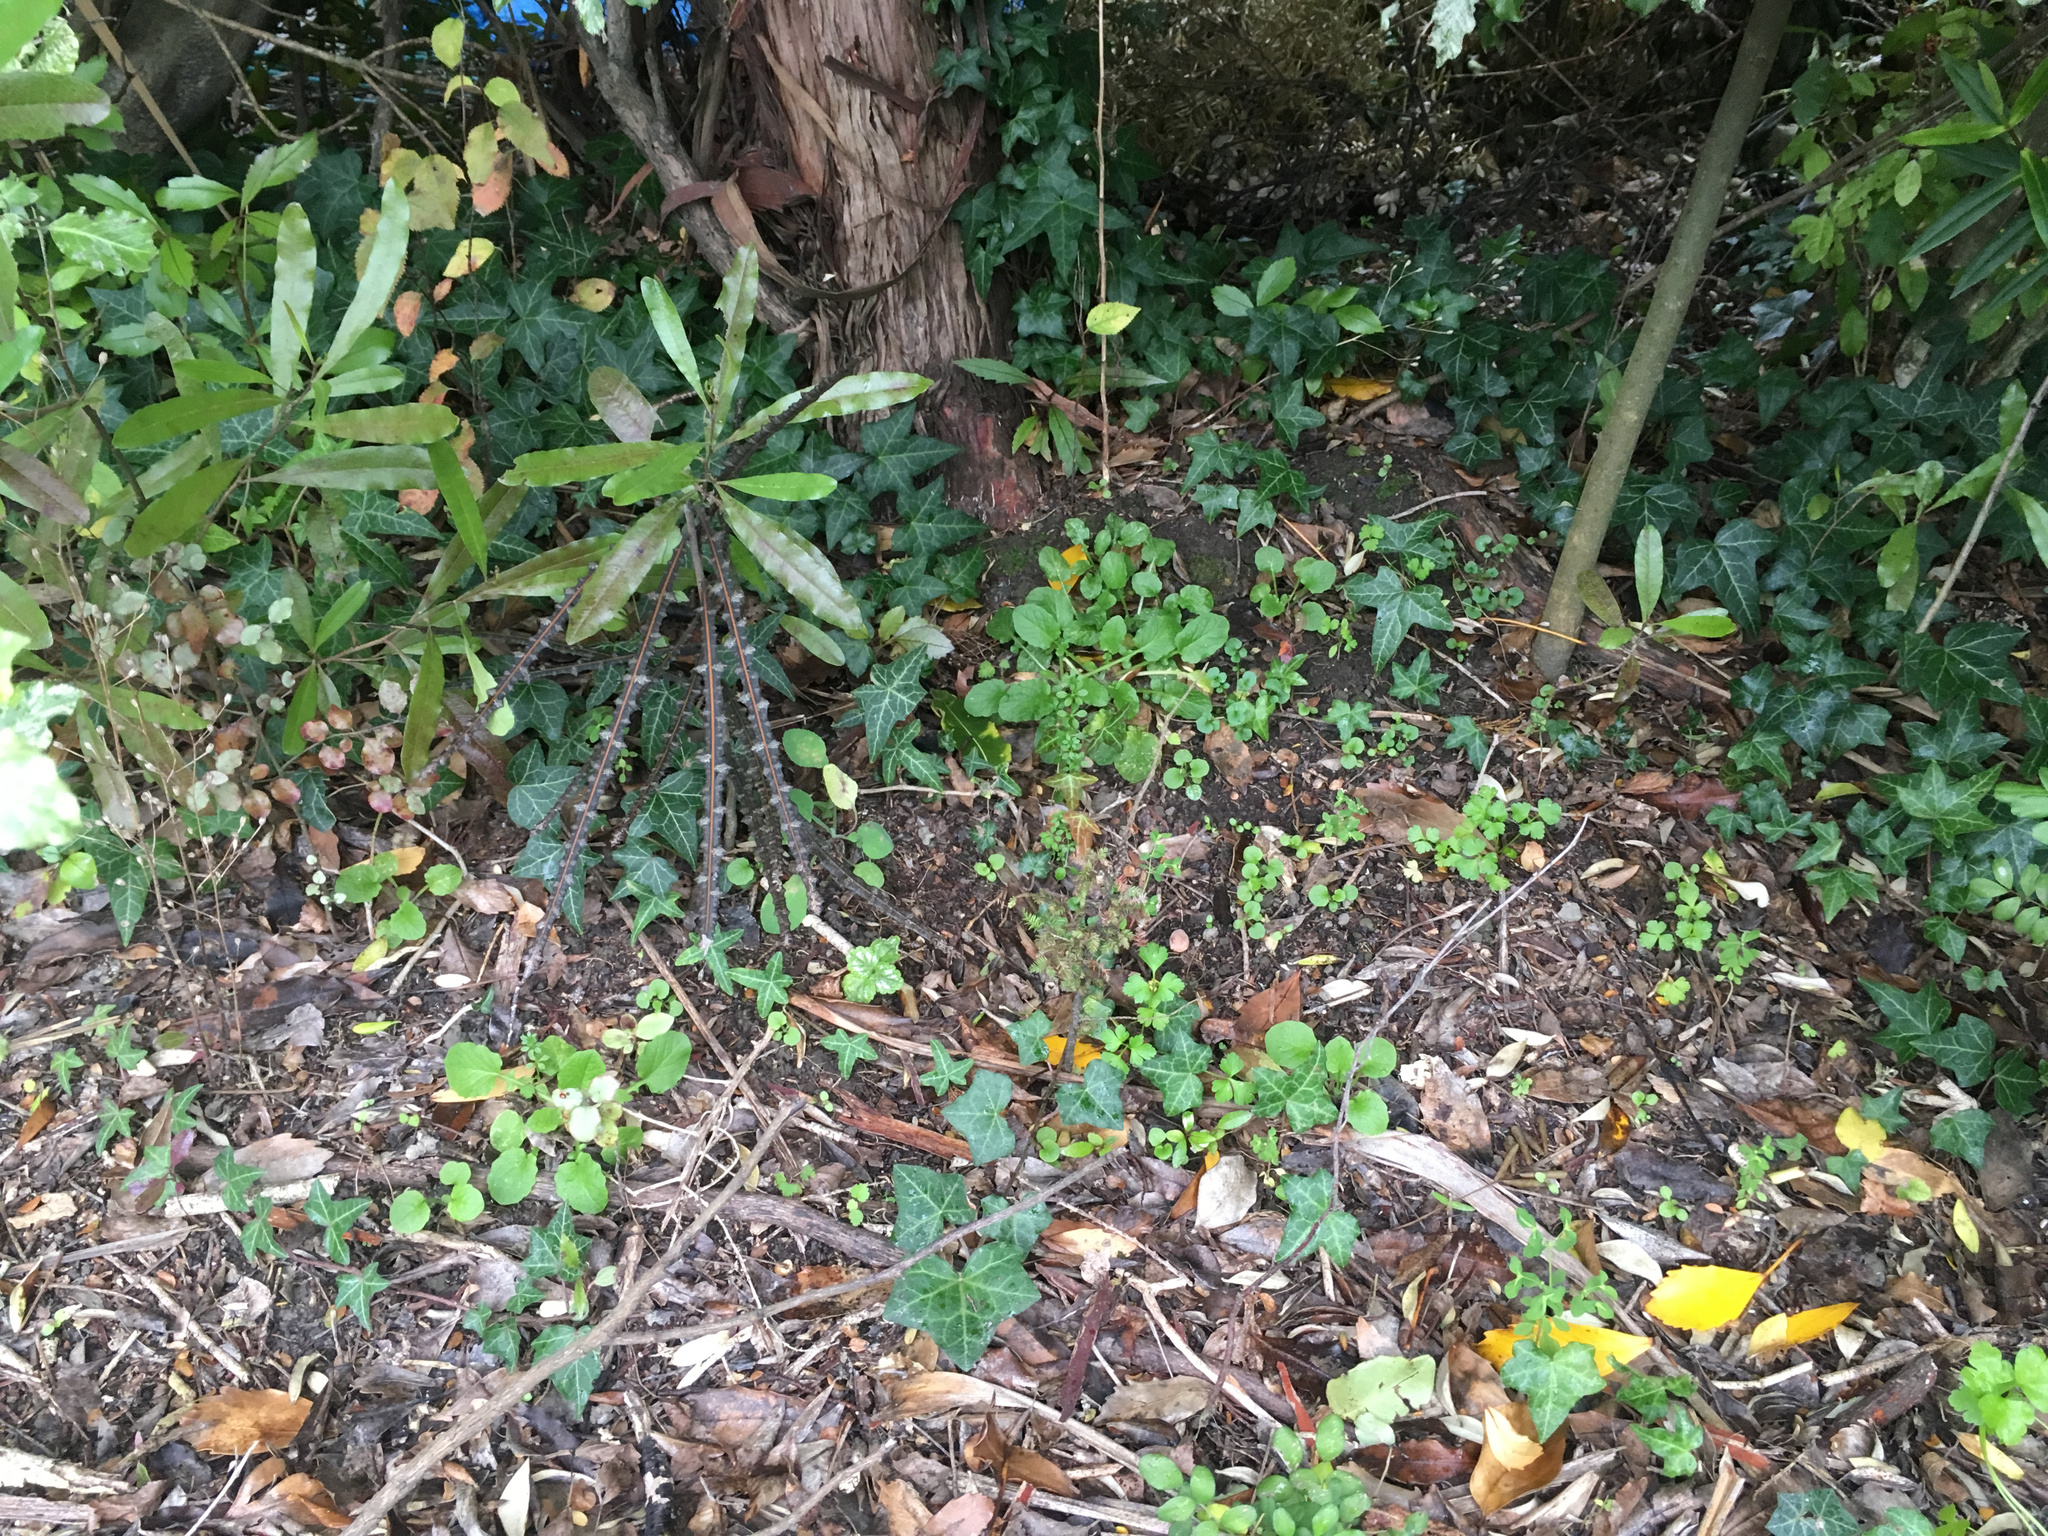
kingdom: Plantae
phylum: Tracheophyta
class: Pinopsida
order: Pinales
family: Podocarpaceae
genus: Dacrycarpus
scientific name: Dacrycarpus dacrydioides
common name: White pine
